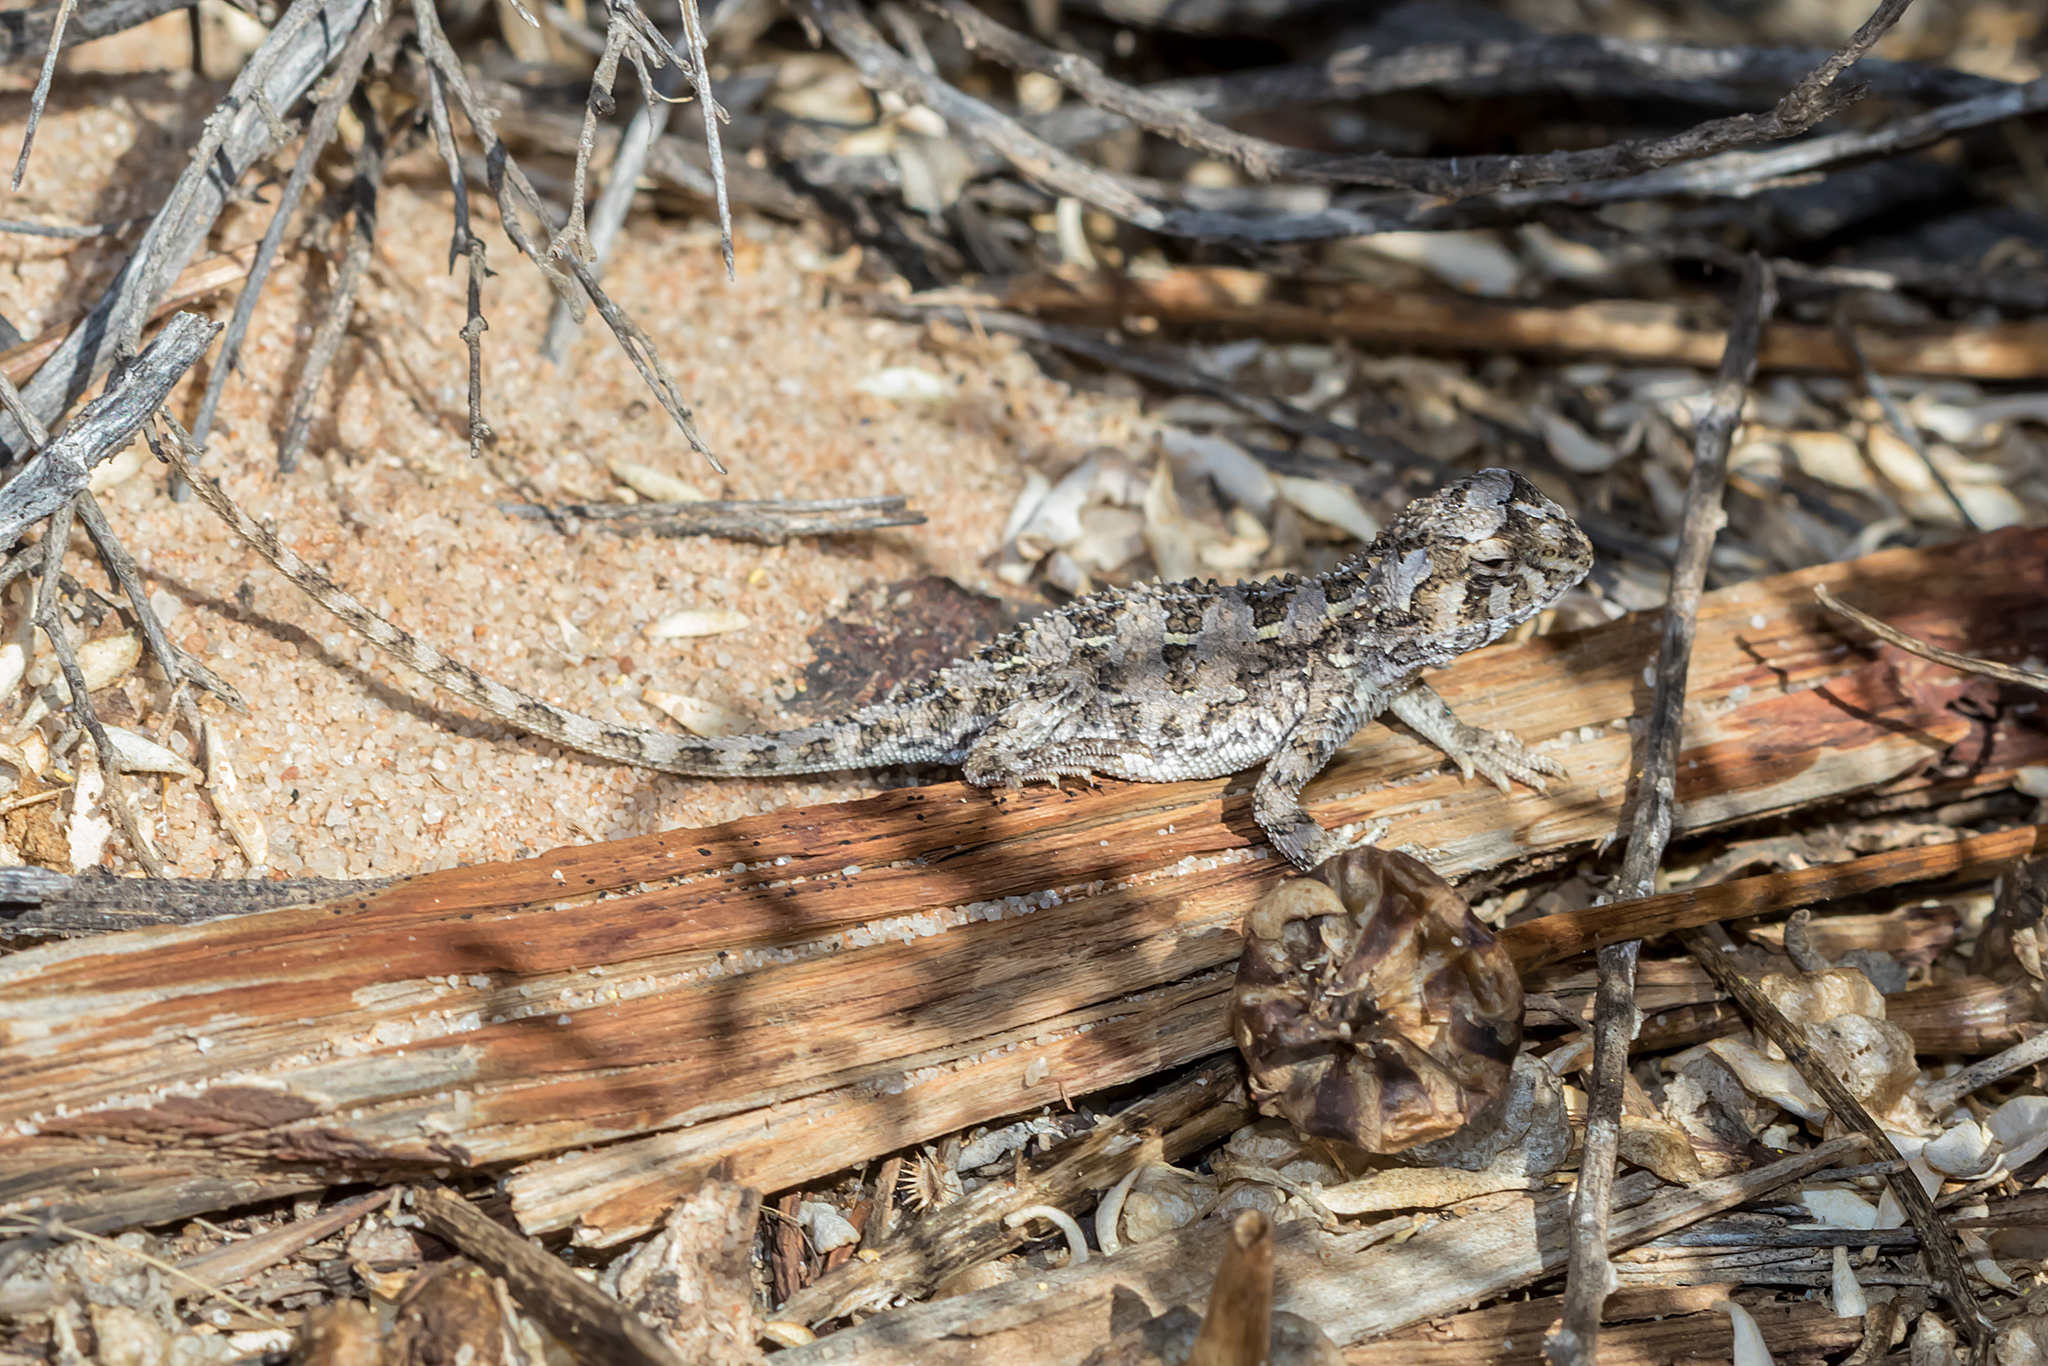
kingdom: Animalia
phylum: Chordata
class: Squamata
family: Agamidae
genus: Tympanocryptis
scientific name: Tympanocryptis petersi
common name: Lined earless dragon
